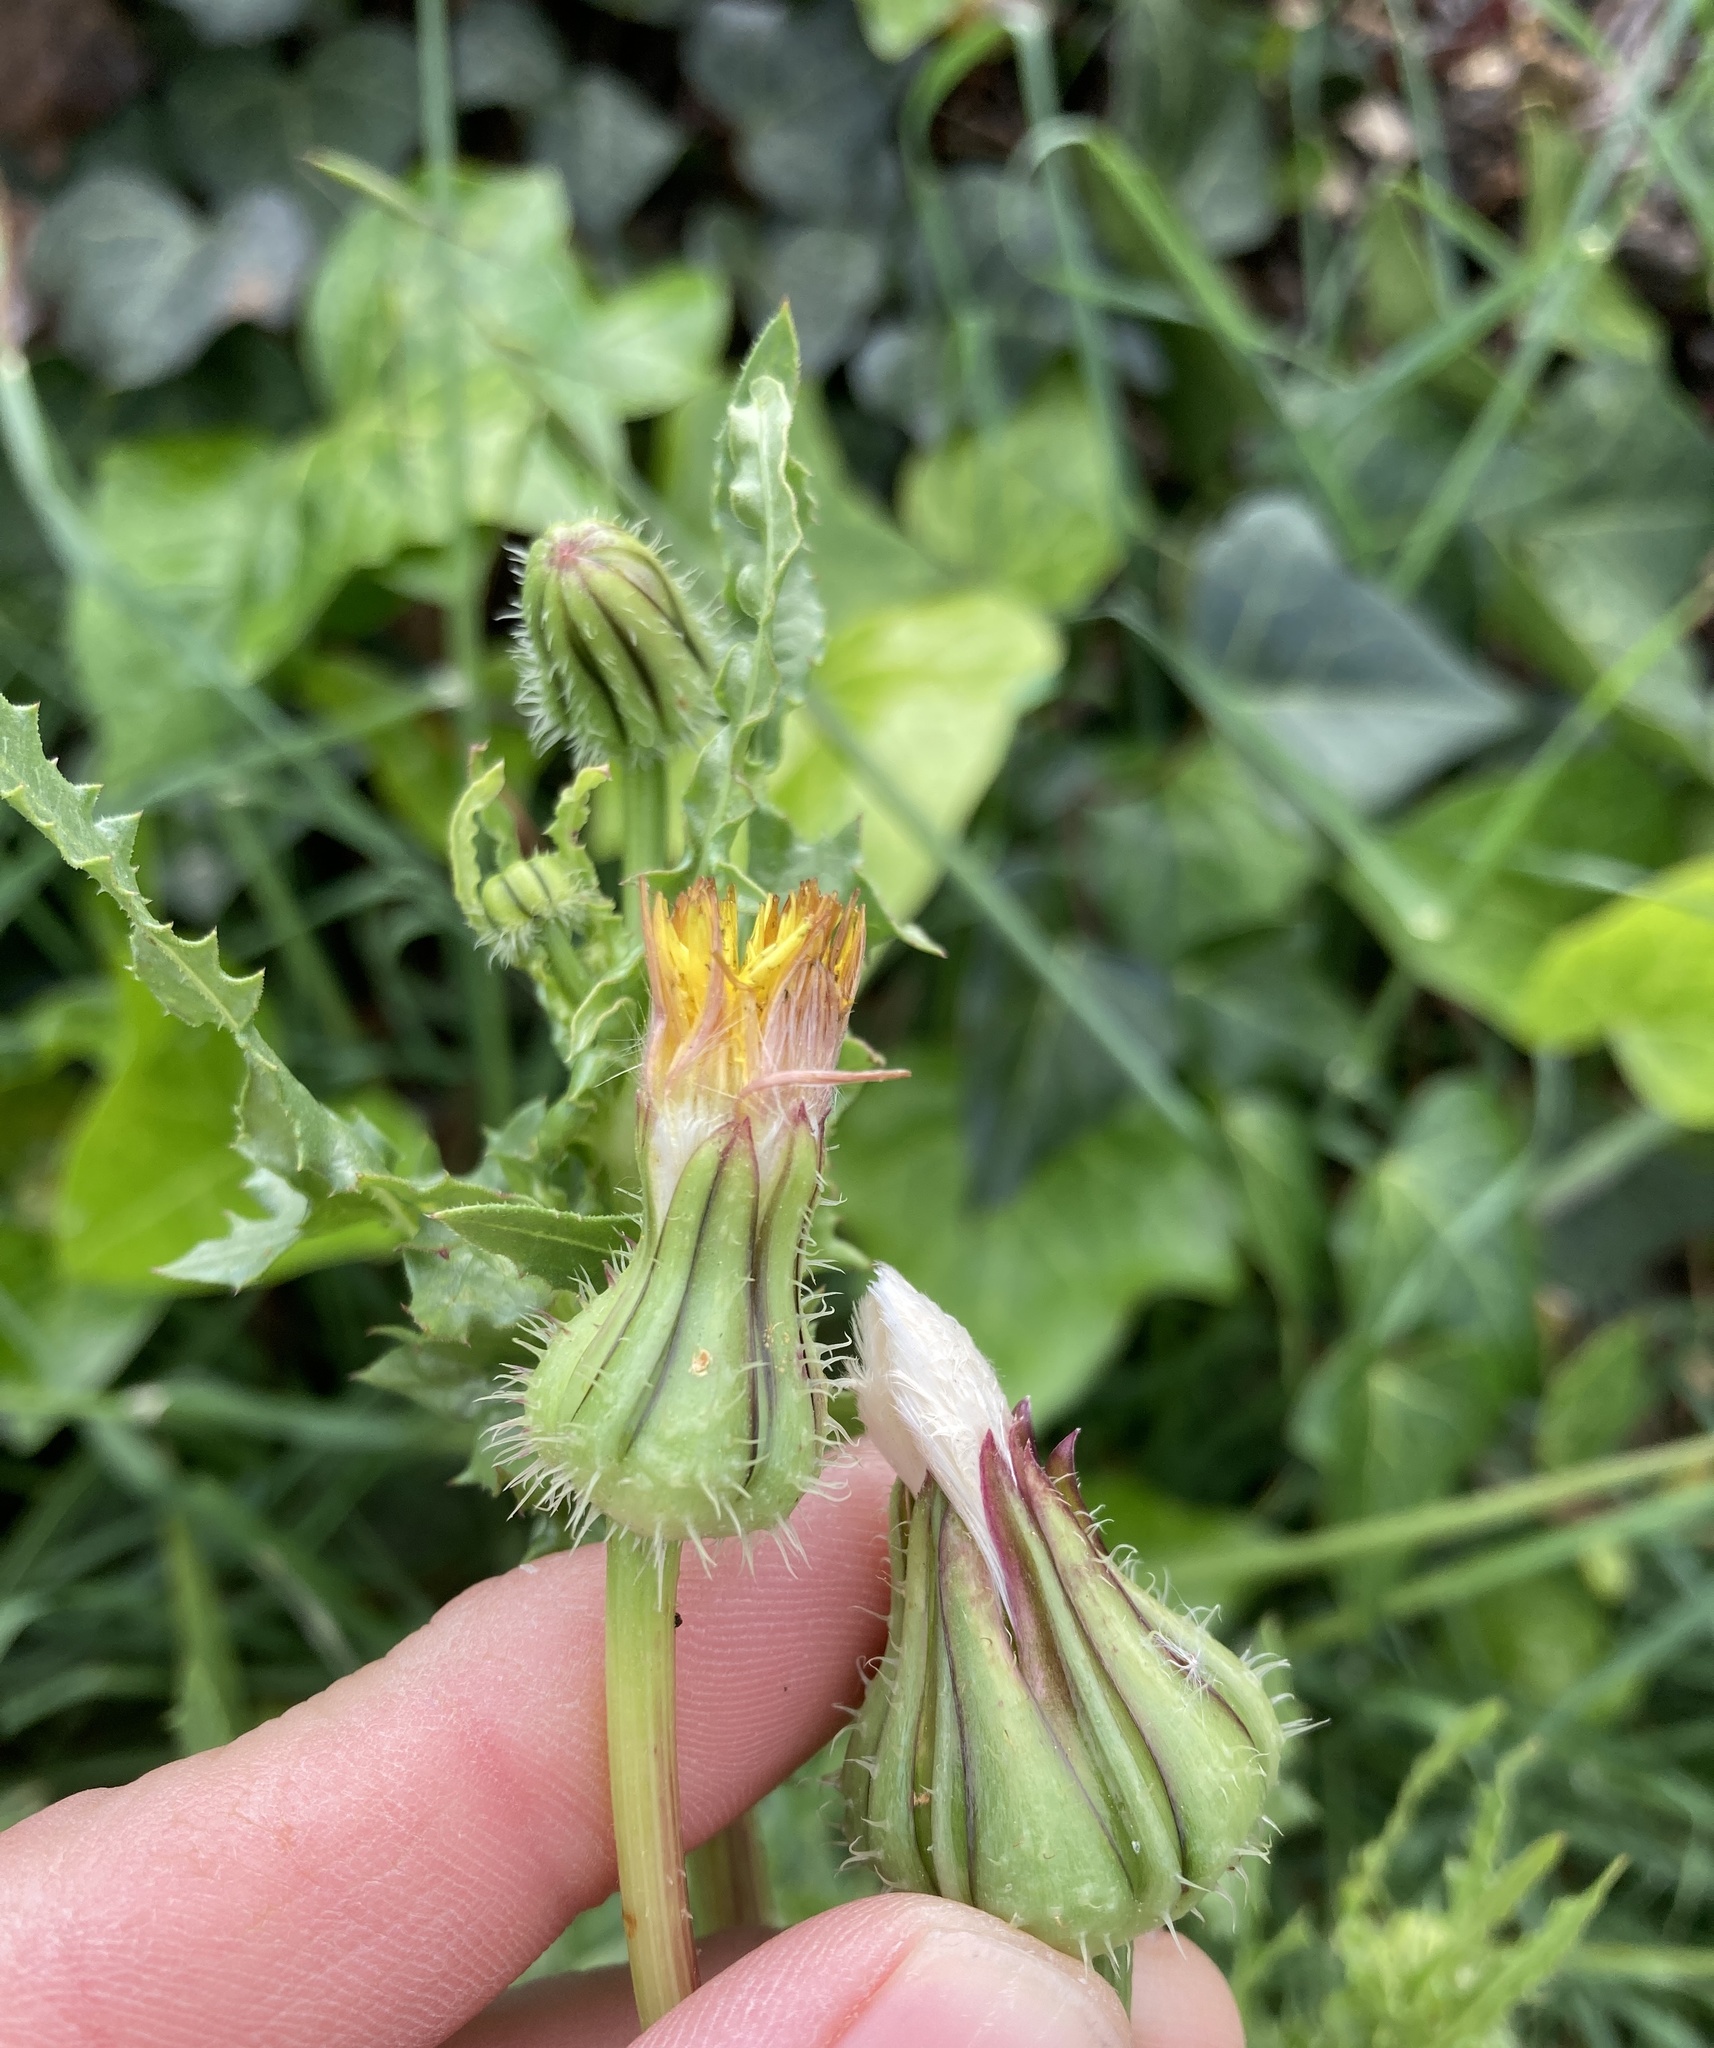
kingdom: Plantae
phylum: Tracheophyta
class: Magnoliopsida
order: Asterales
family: Asteraceae
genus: Urospermum
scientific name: Urospermum picroides
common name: False hawkbit
